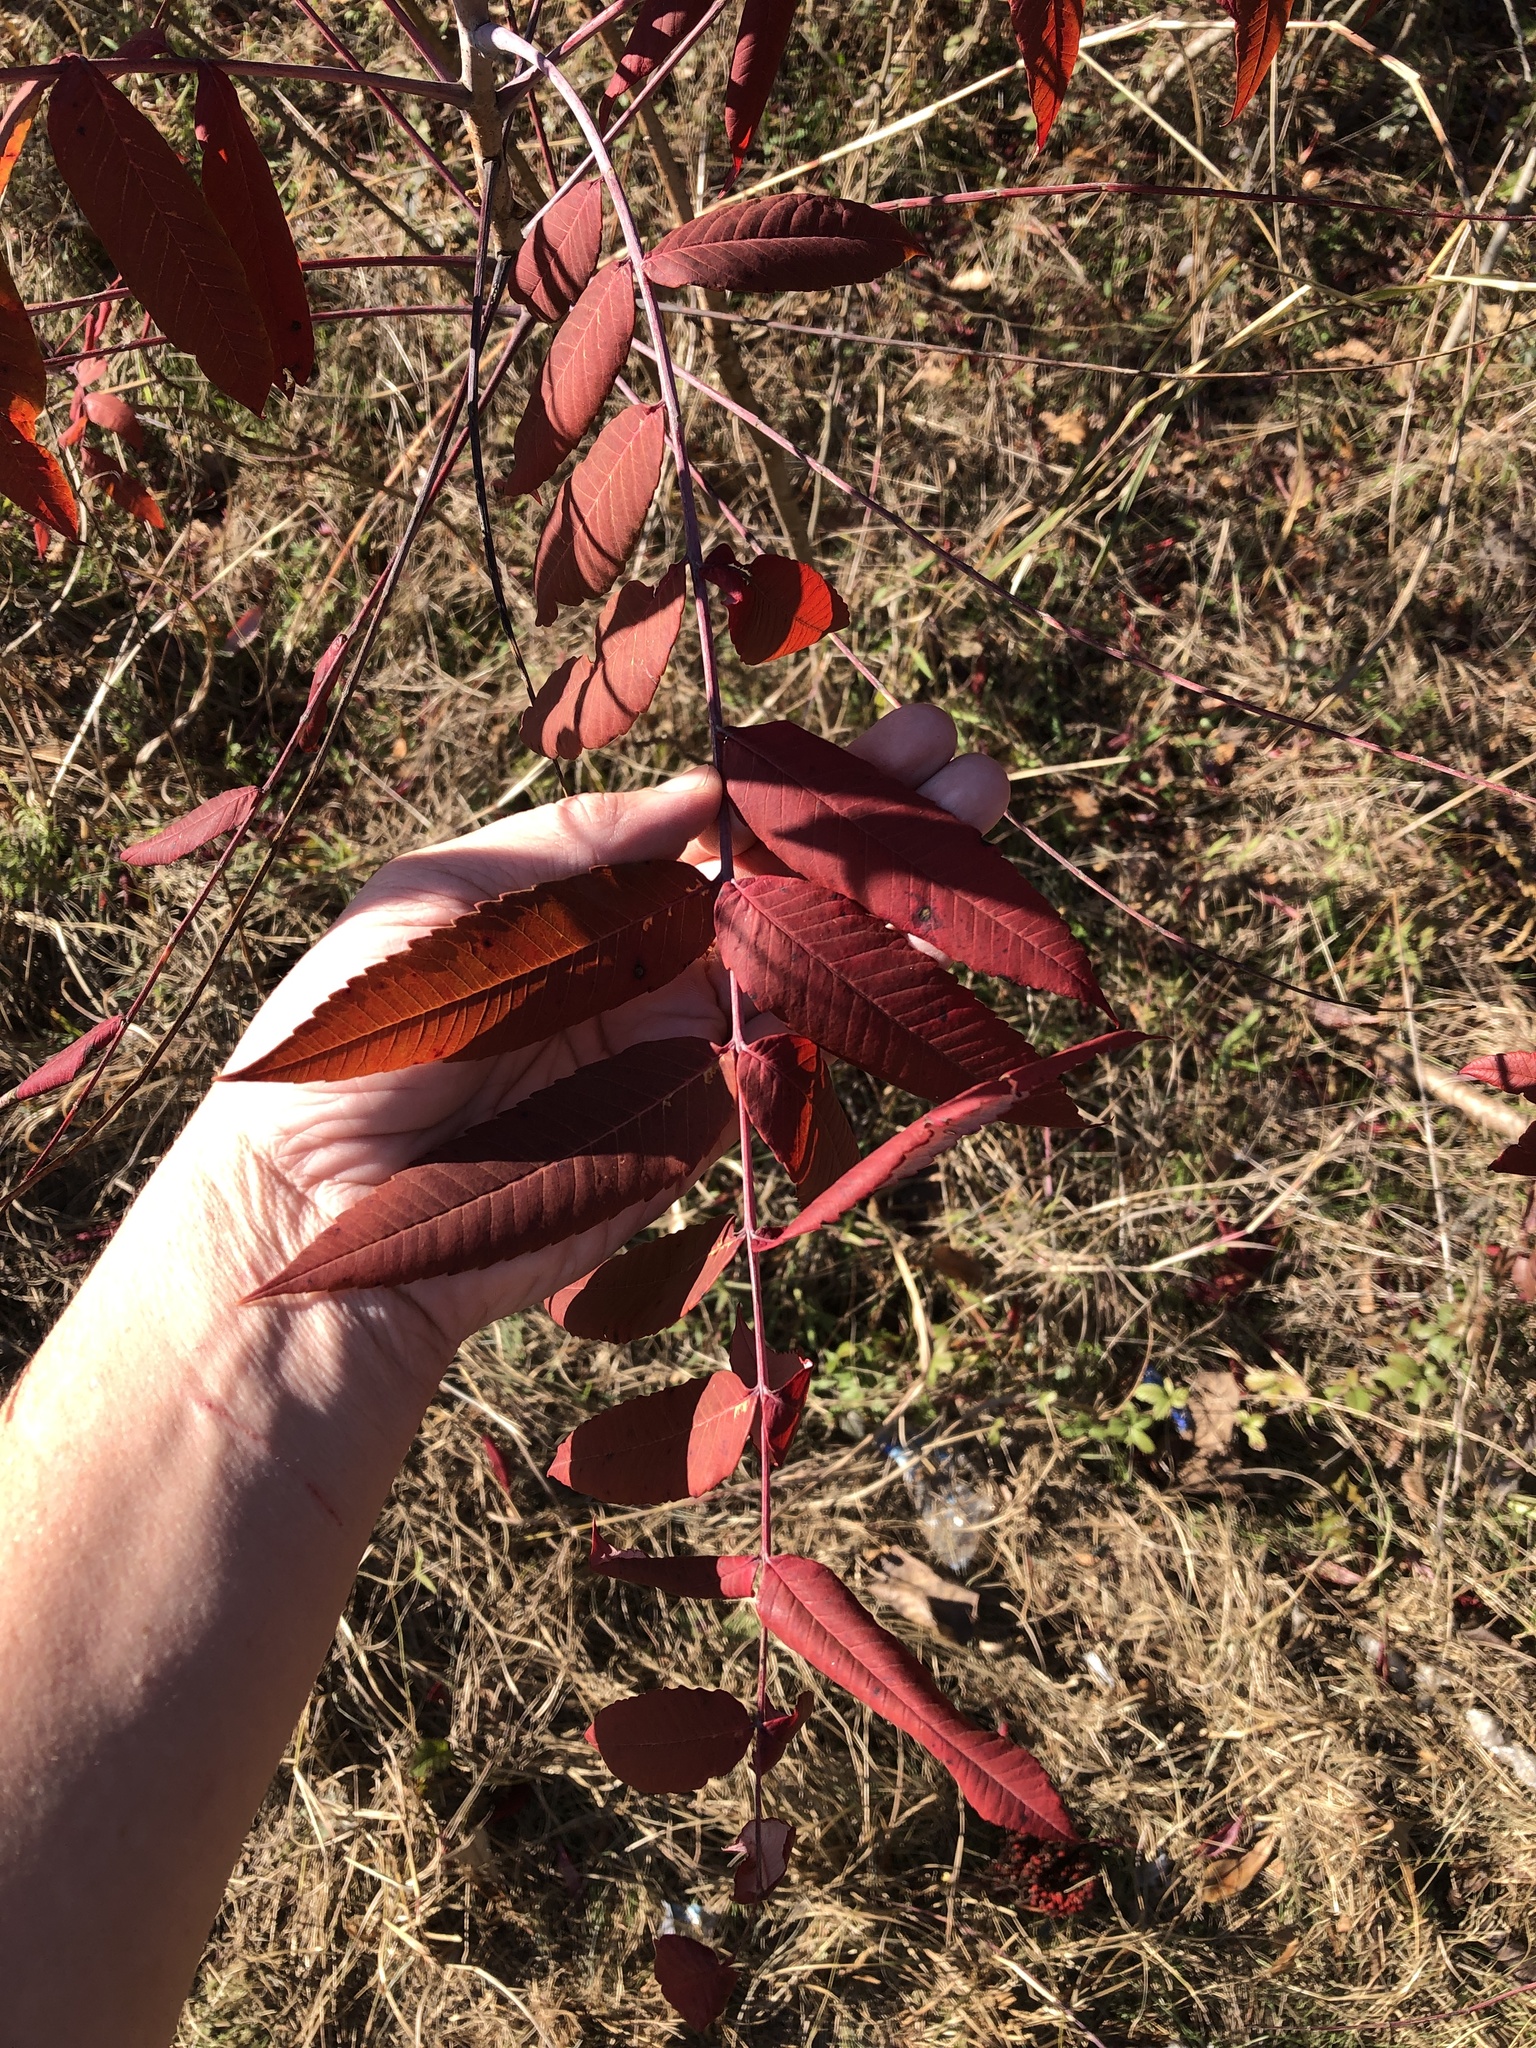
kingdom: Plantae
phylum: Tracheophyta
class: Magnoliopsida
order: Sapindales
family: Anacardiaceae
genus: Rhus
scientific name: Rhus glabra
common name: Scarlet sumac
